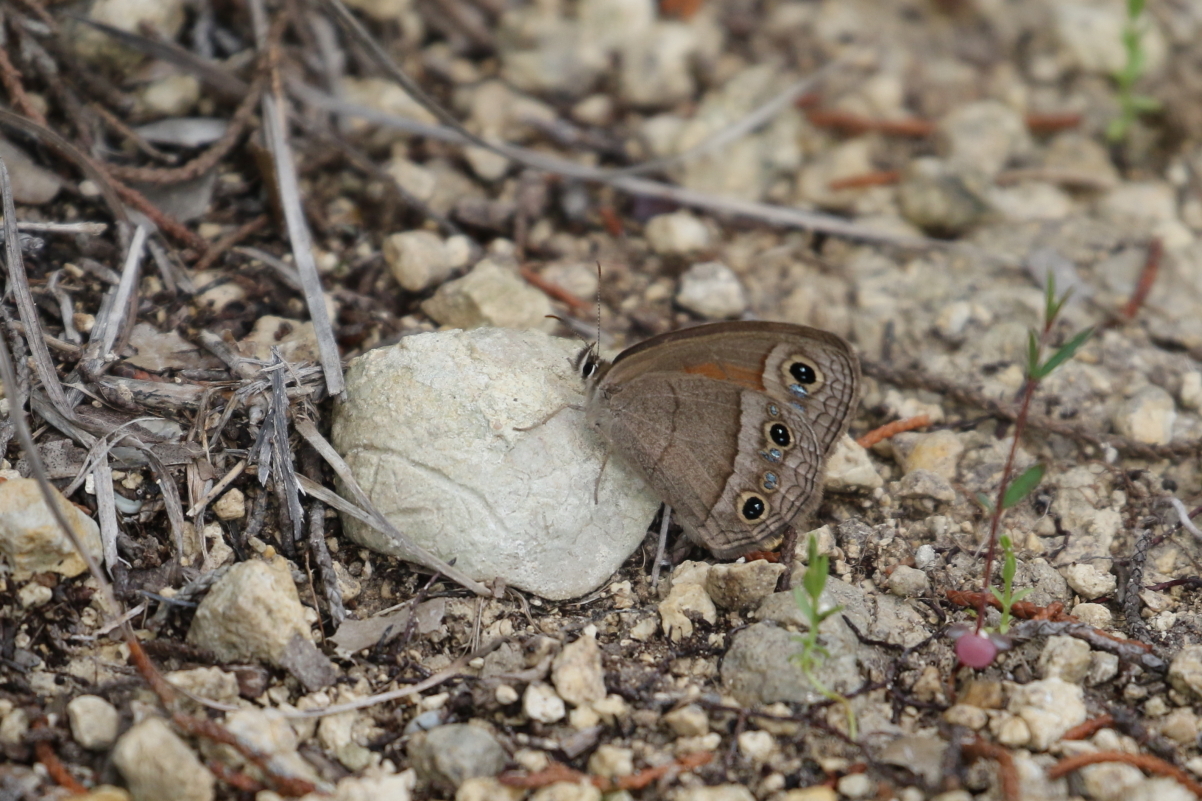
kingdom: Animalia
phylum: Arthropoda
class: Insecta
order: Lepidoptera
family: Nymphalidae
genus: Euptychia
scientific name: Euptychia Cissia rubricata
